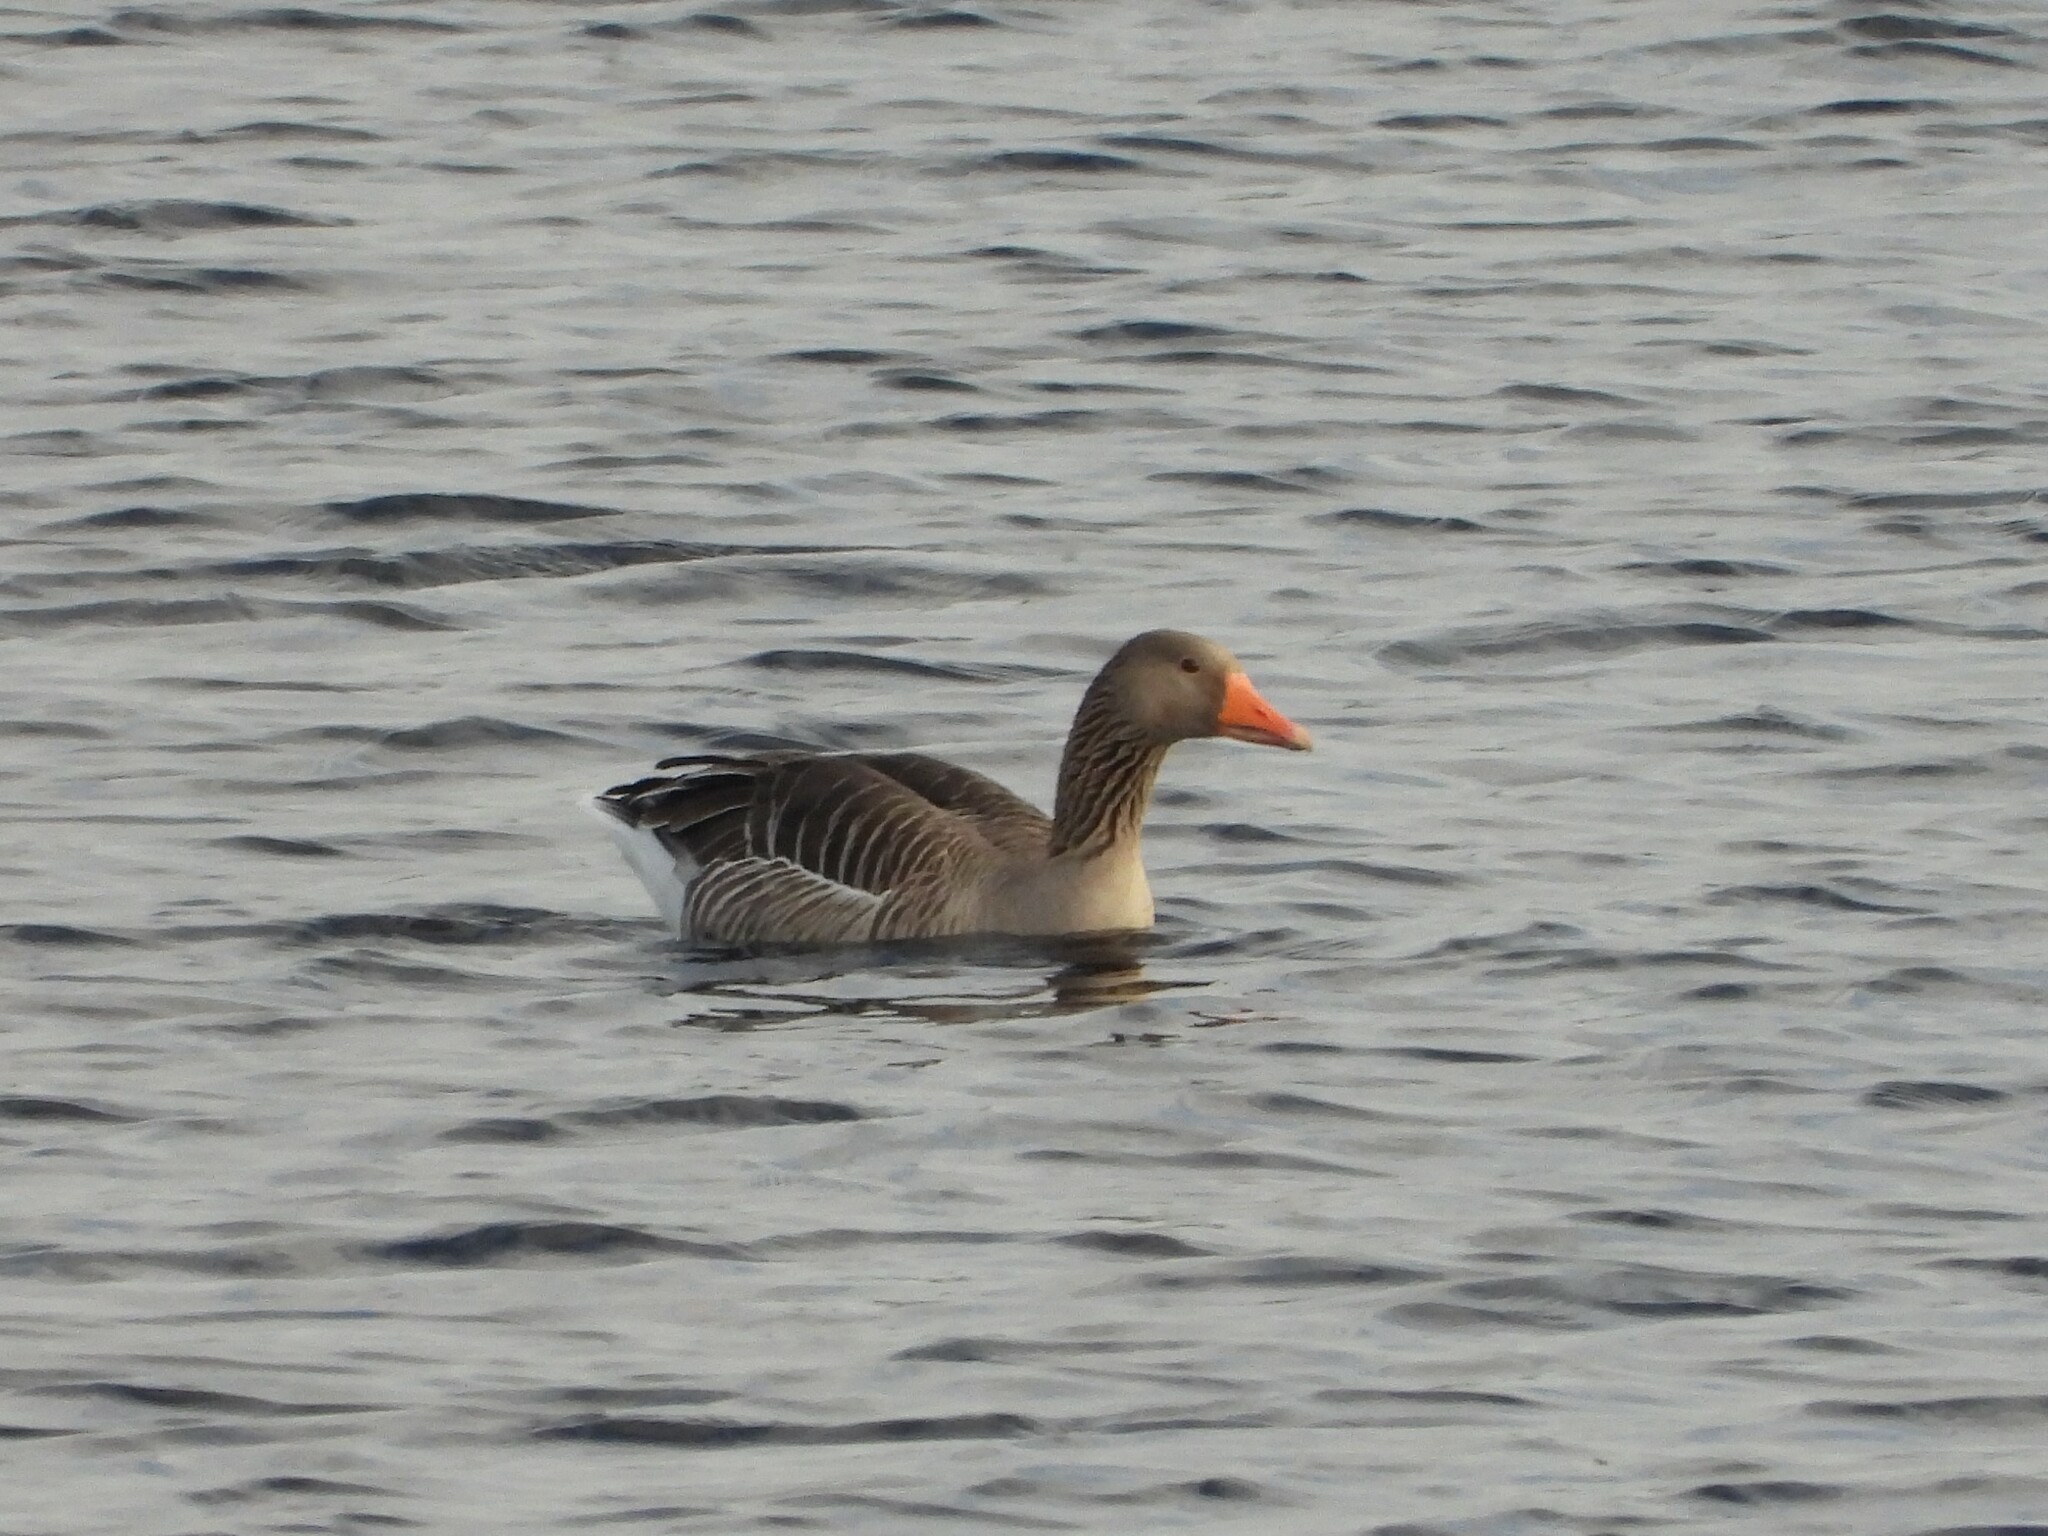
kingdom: Animalia
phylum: Chordata
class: Aves
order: Anseriformes
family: Anatidae
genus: Anser
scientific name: Anser anser
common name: Greylag goose
